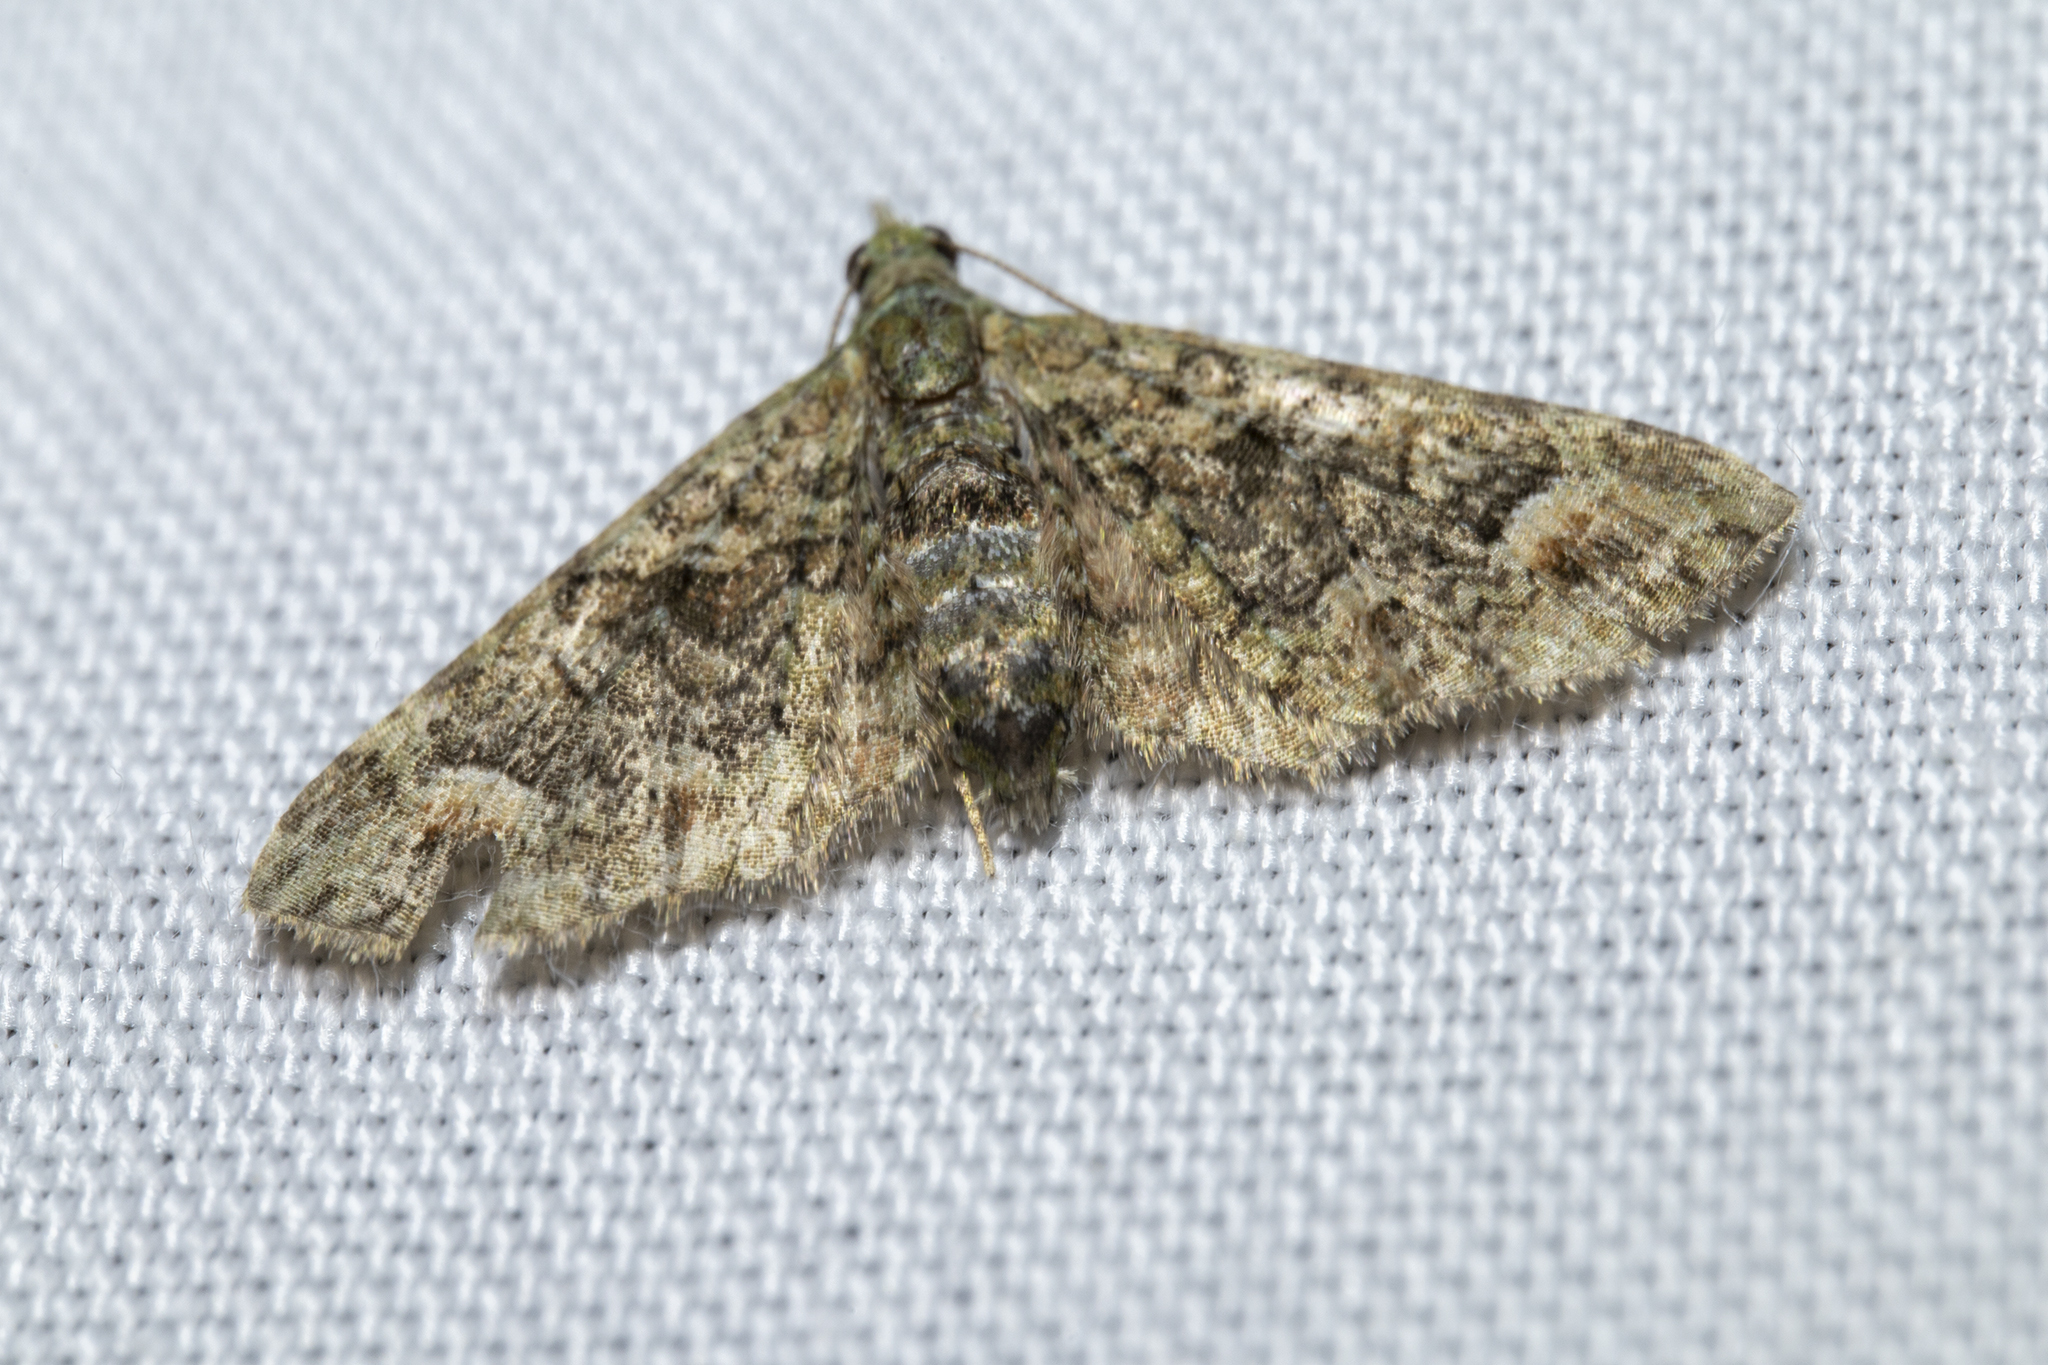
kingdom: Animalia
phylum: Arthropoda
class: Insecta
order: Lepidoptera
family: Geometridae
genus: Idaea
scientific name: Idaea mutanda
